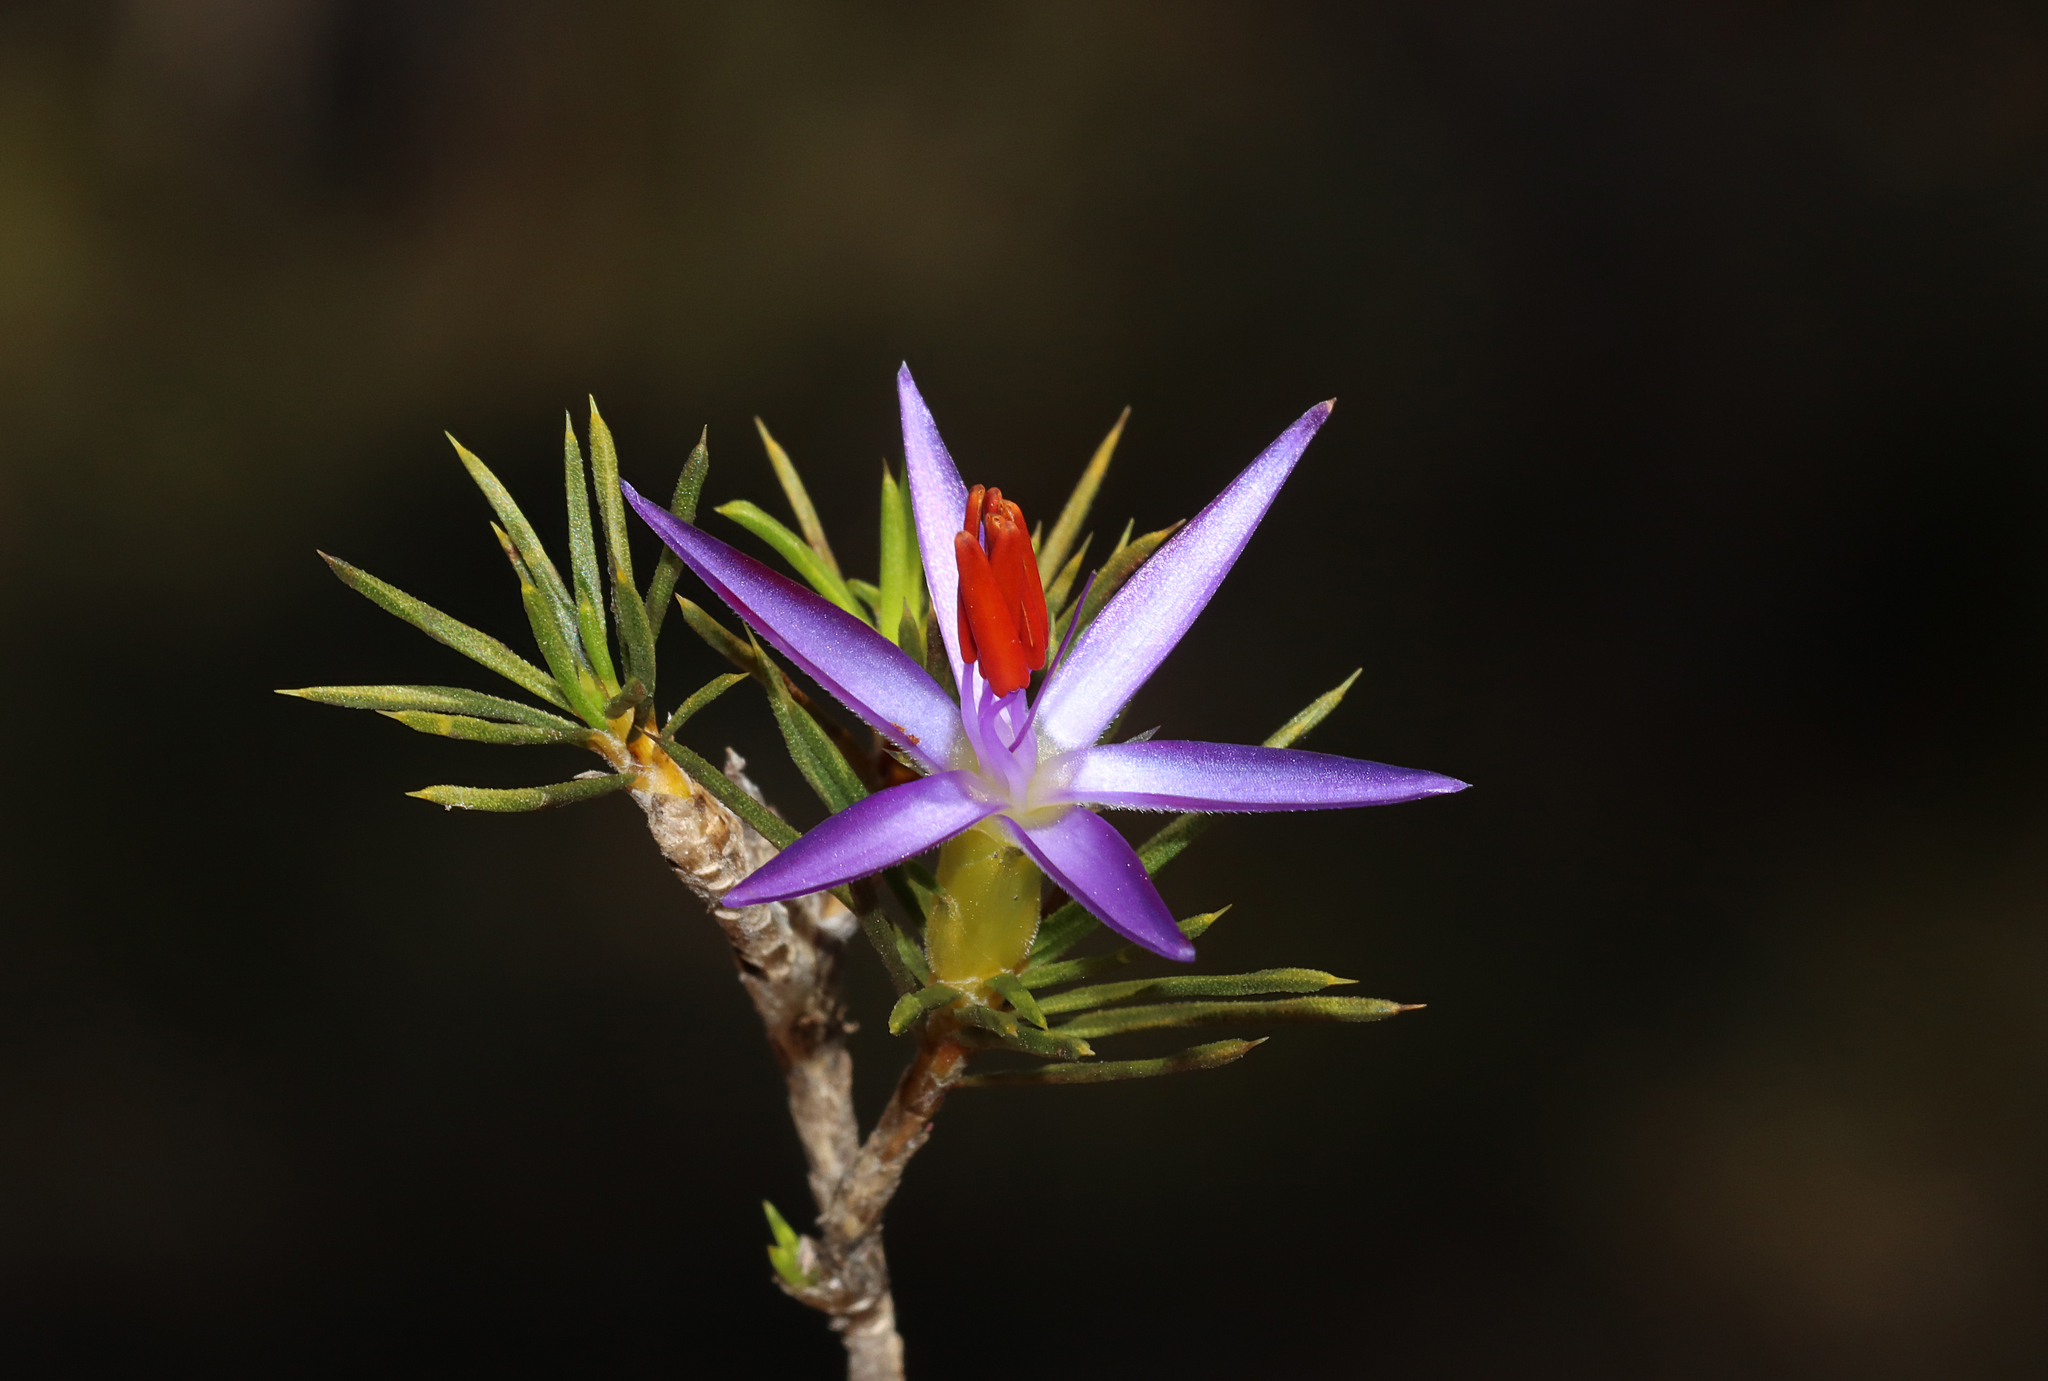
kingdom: Plantae
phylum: Tracheophyta
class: Liliopsida
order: Arecales
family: Dasypogonaceae
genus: Calectasia
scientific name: Calectasia narragara
